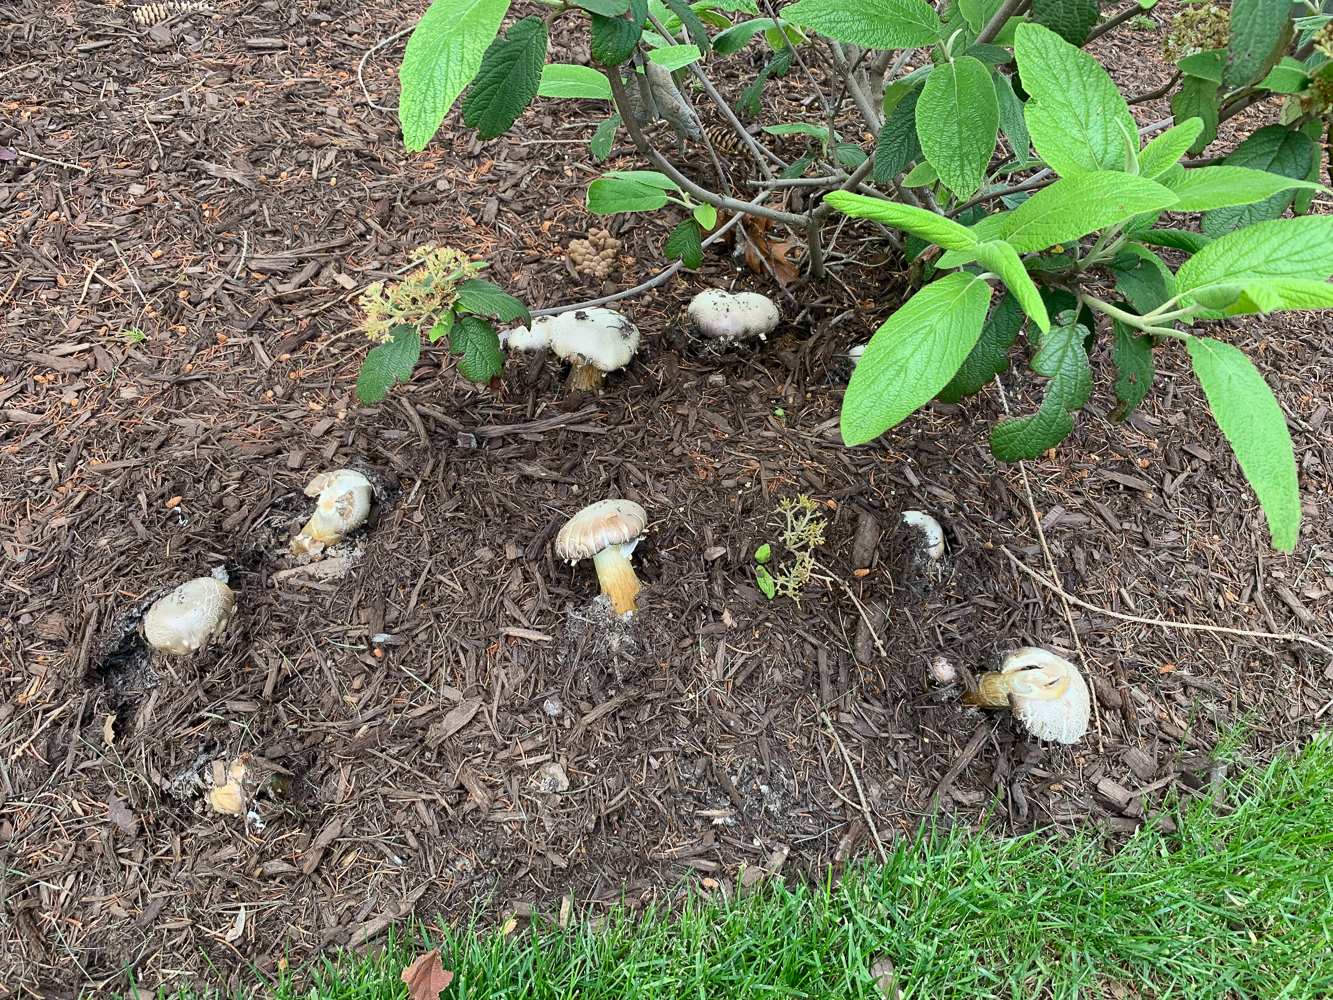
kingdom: Fungi
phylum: Basidiomycota
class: Agaricomycetes
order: Agaricales
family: Strophariaceae
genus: Stropharia
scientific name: Stropharia rugosoannulata
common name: Wine roundhead
